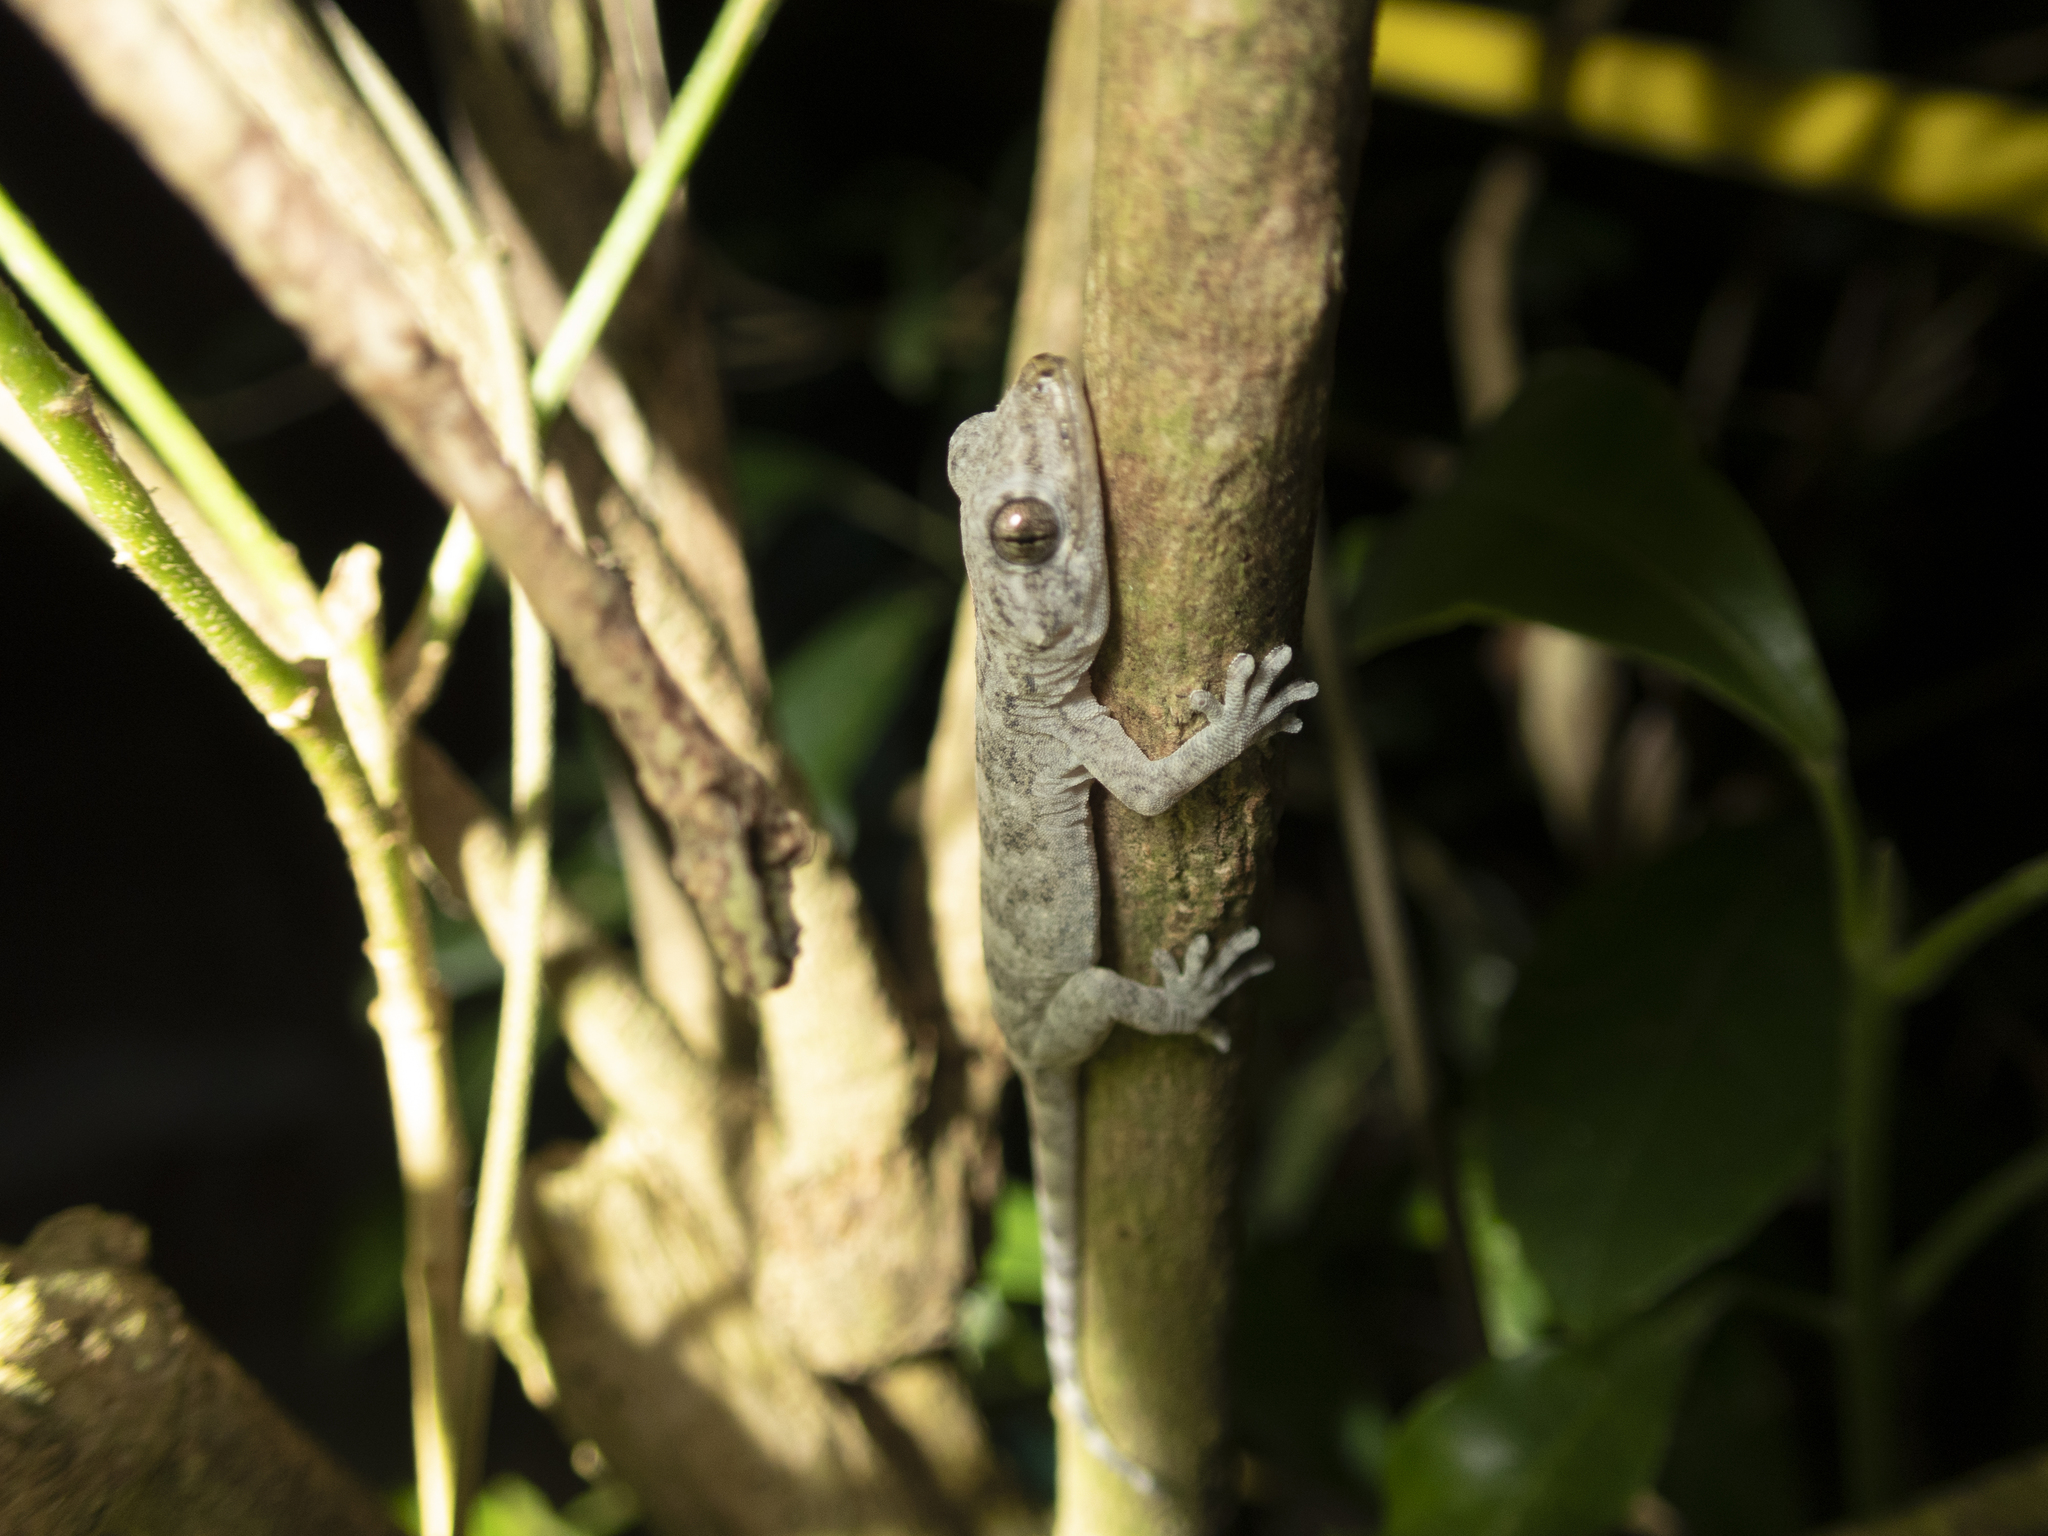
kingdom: Animalia
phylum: Chordata
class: Squamata
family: Gekkonidae
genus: Gekko
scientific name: Gekko chinensis
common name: Gray's chinese gecko
